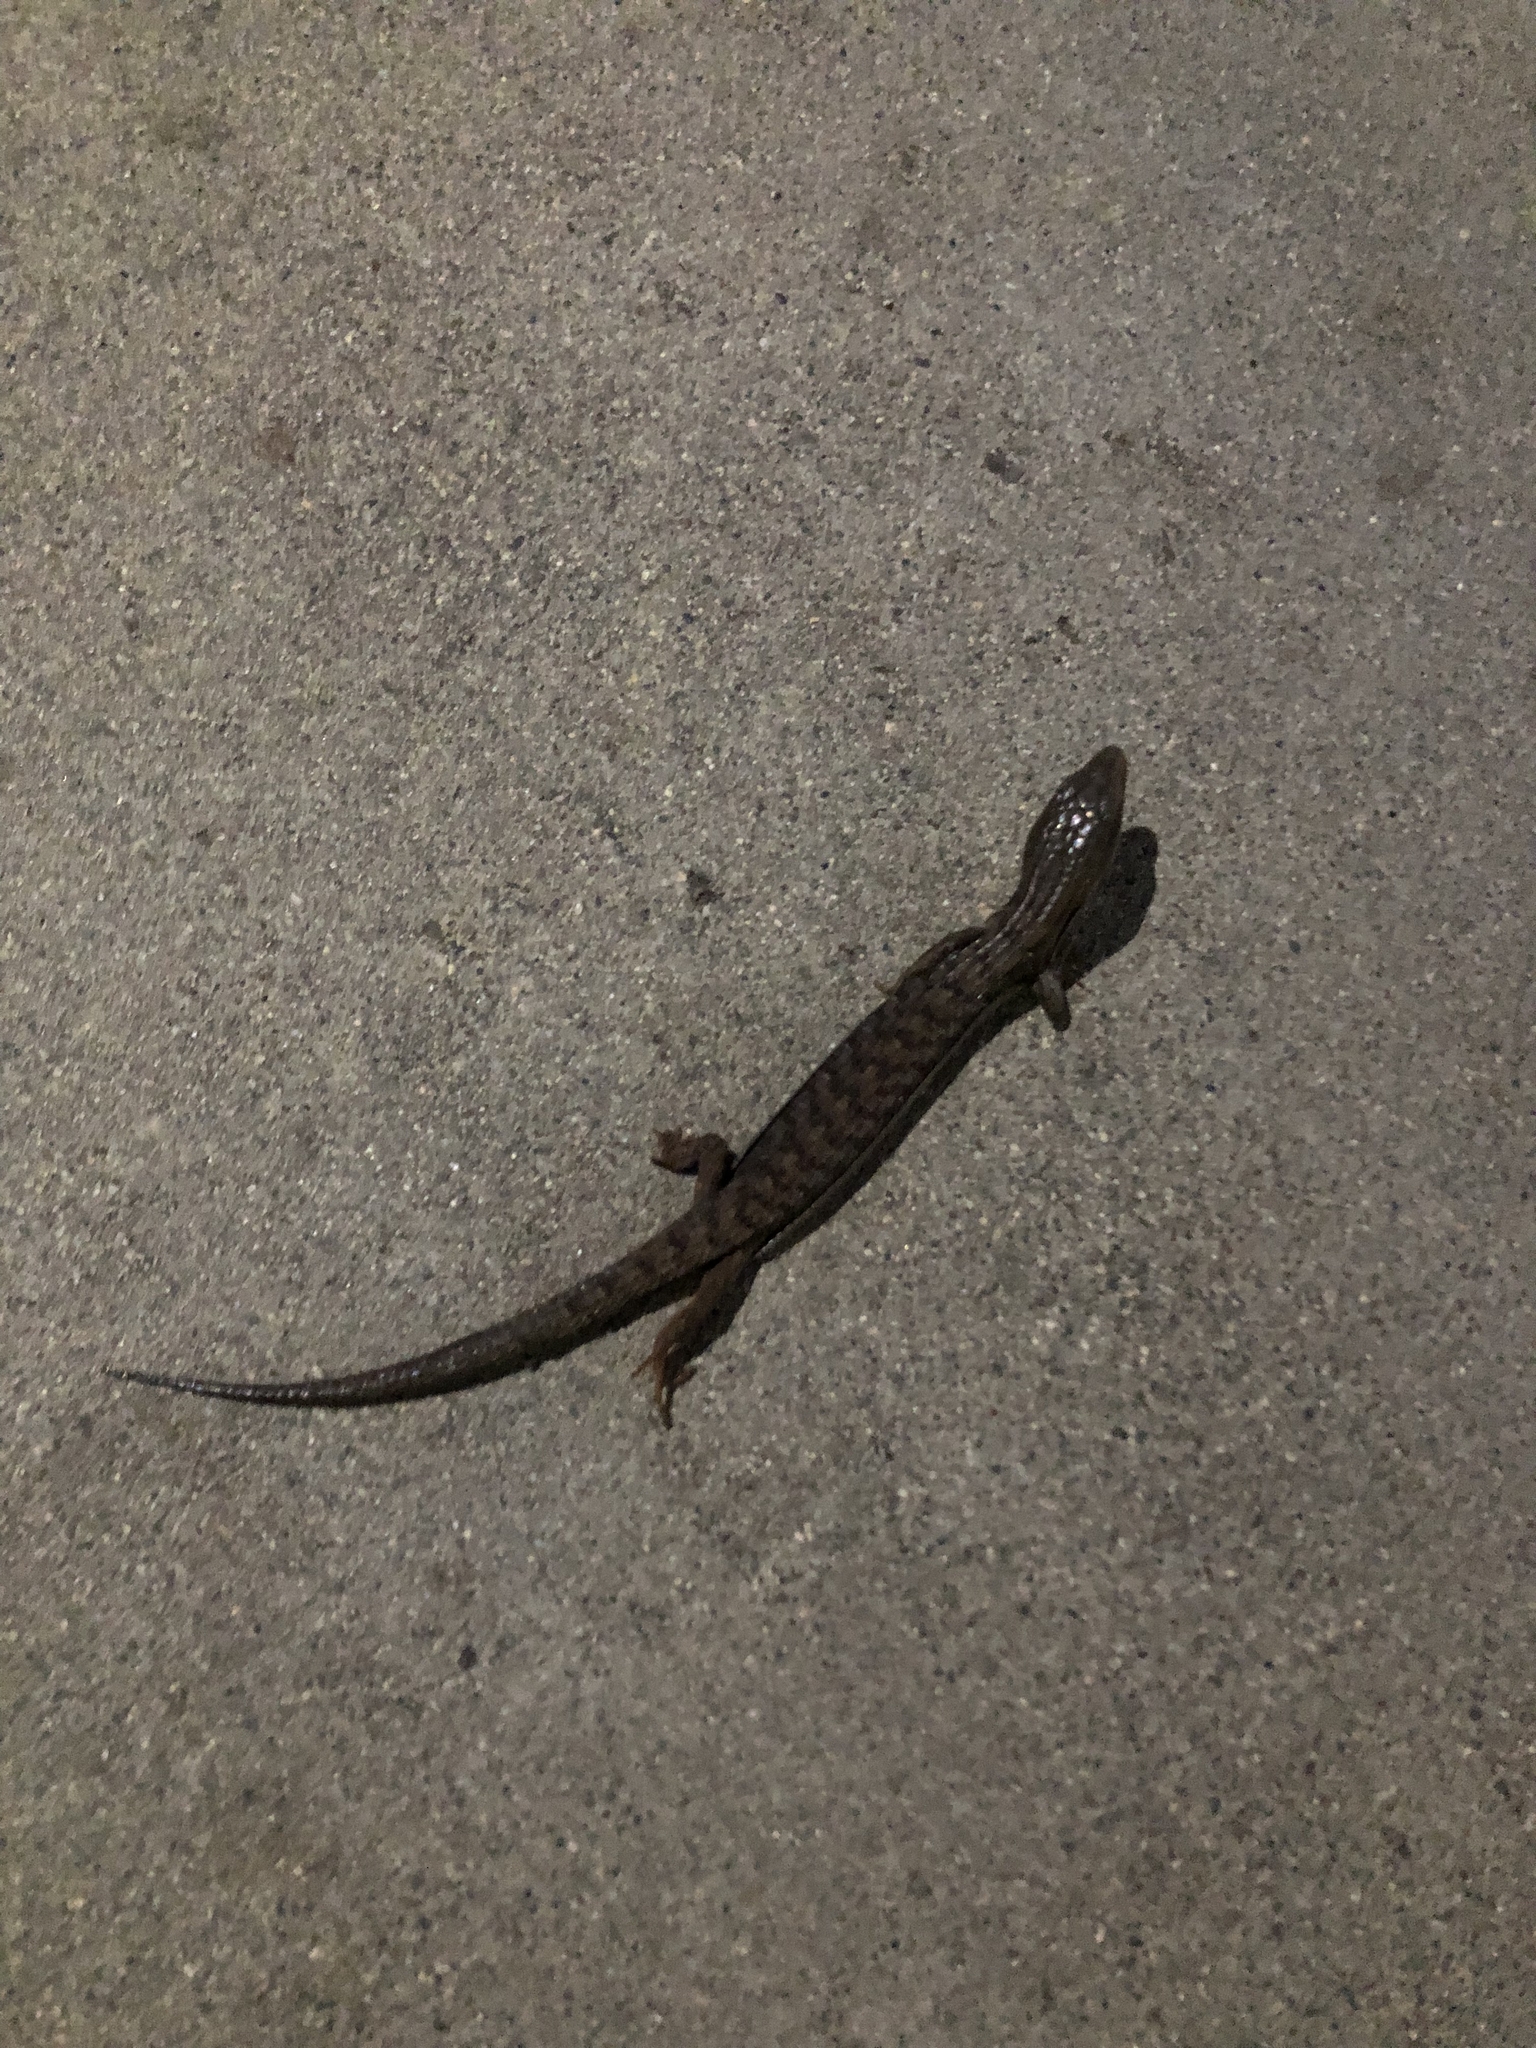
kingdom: Animalia
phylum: Chordata
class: Squamata
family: Anguidae
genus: Elgaria
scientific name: Elgaria multicarinata
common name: Southern alligator lizard
